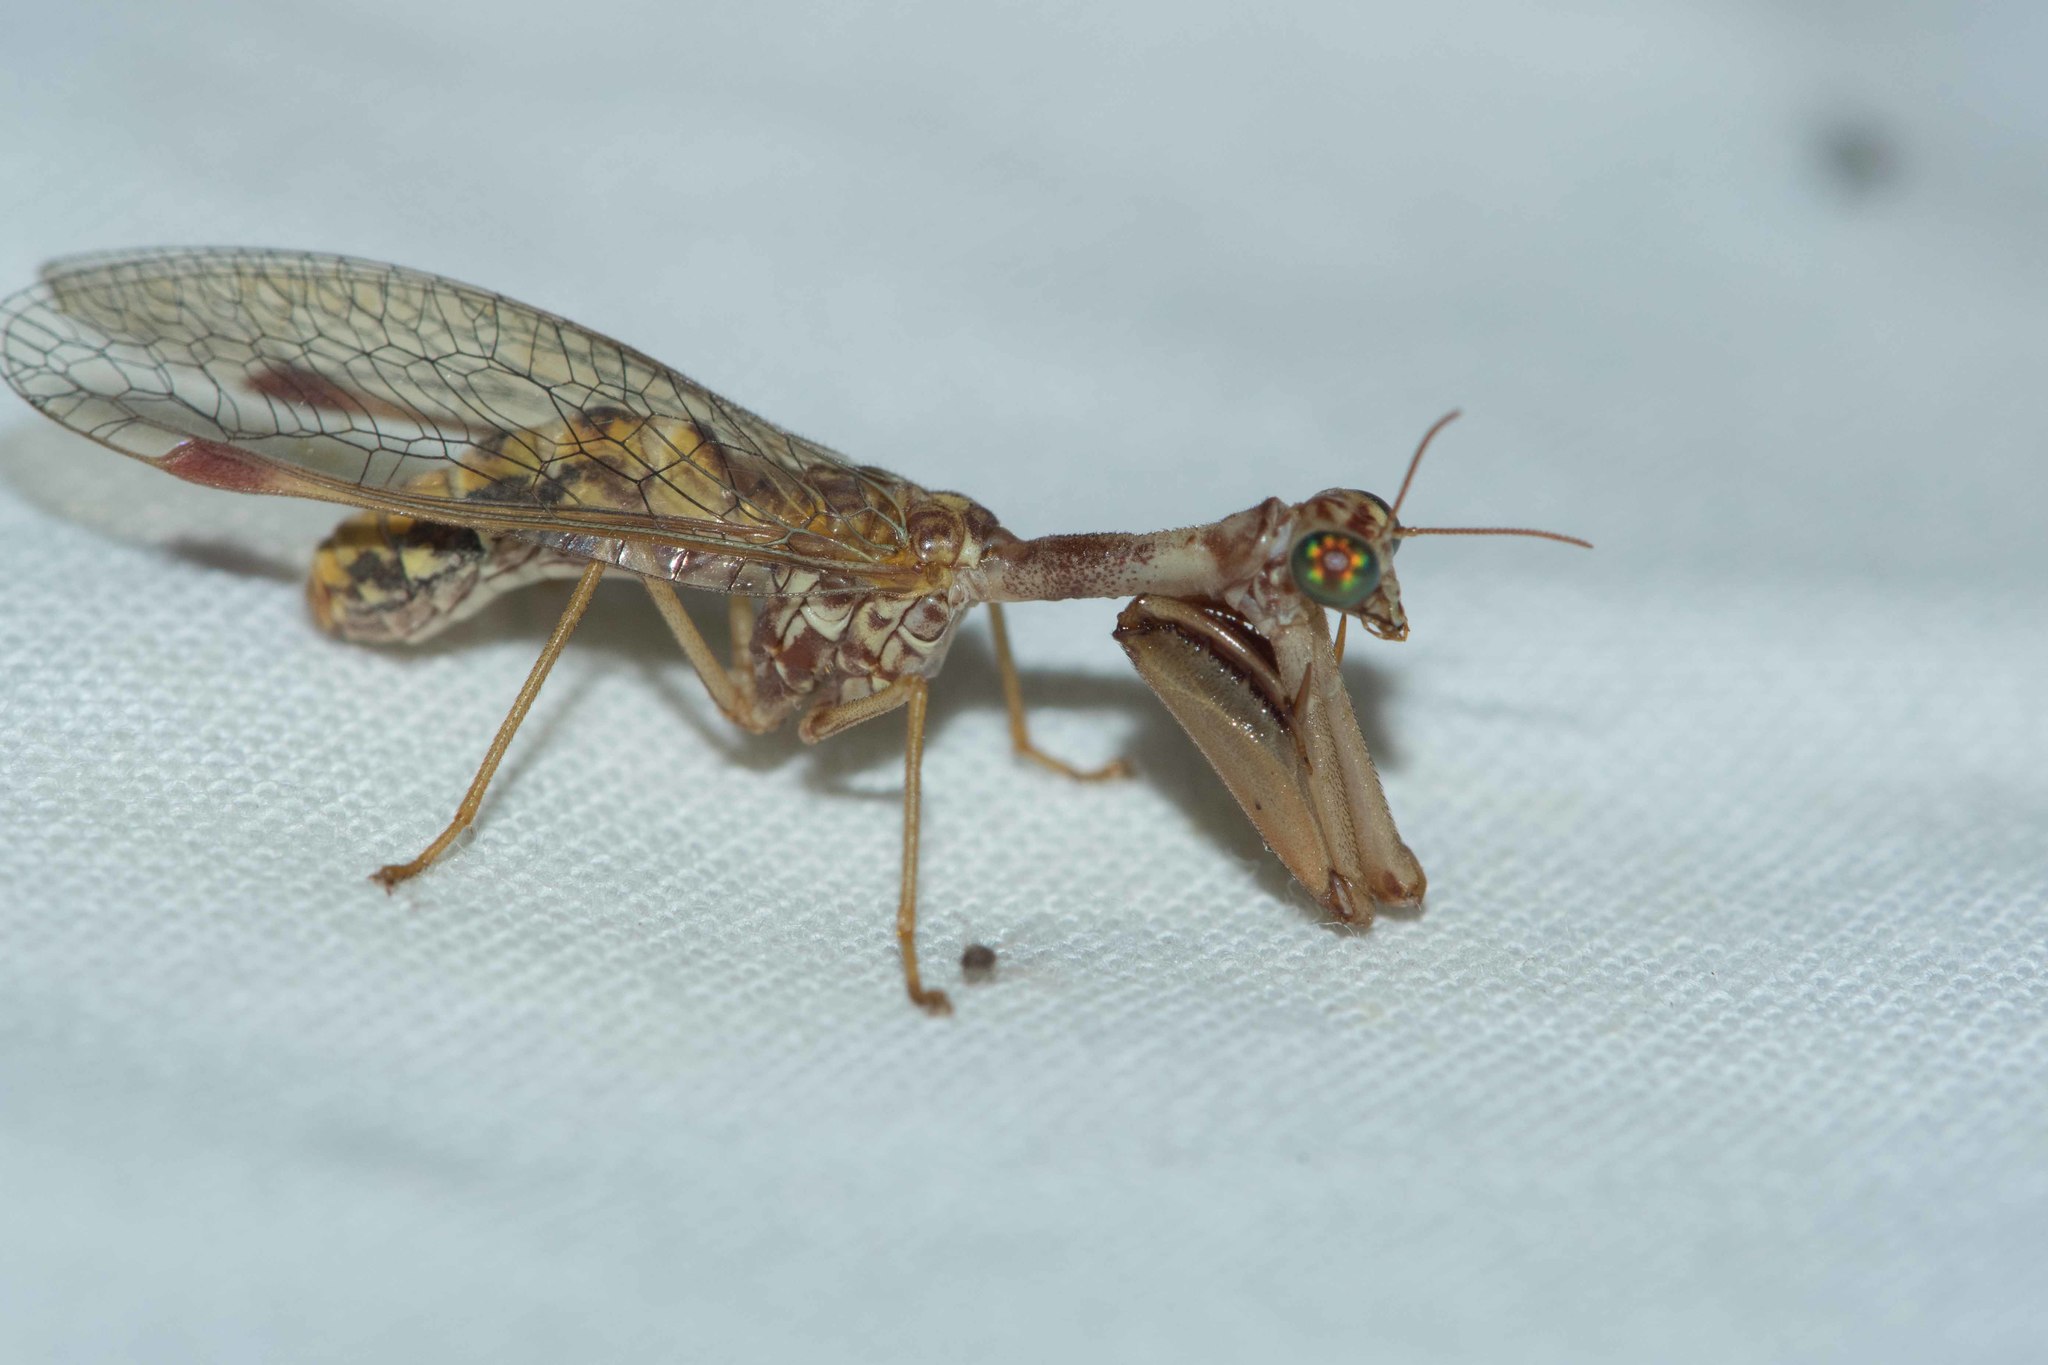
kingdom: Animalia
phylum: Arthropoda
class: Insecta
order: Neuroptera
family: Mantispidae
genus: Mantispa
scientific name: Mantispa styriaca
